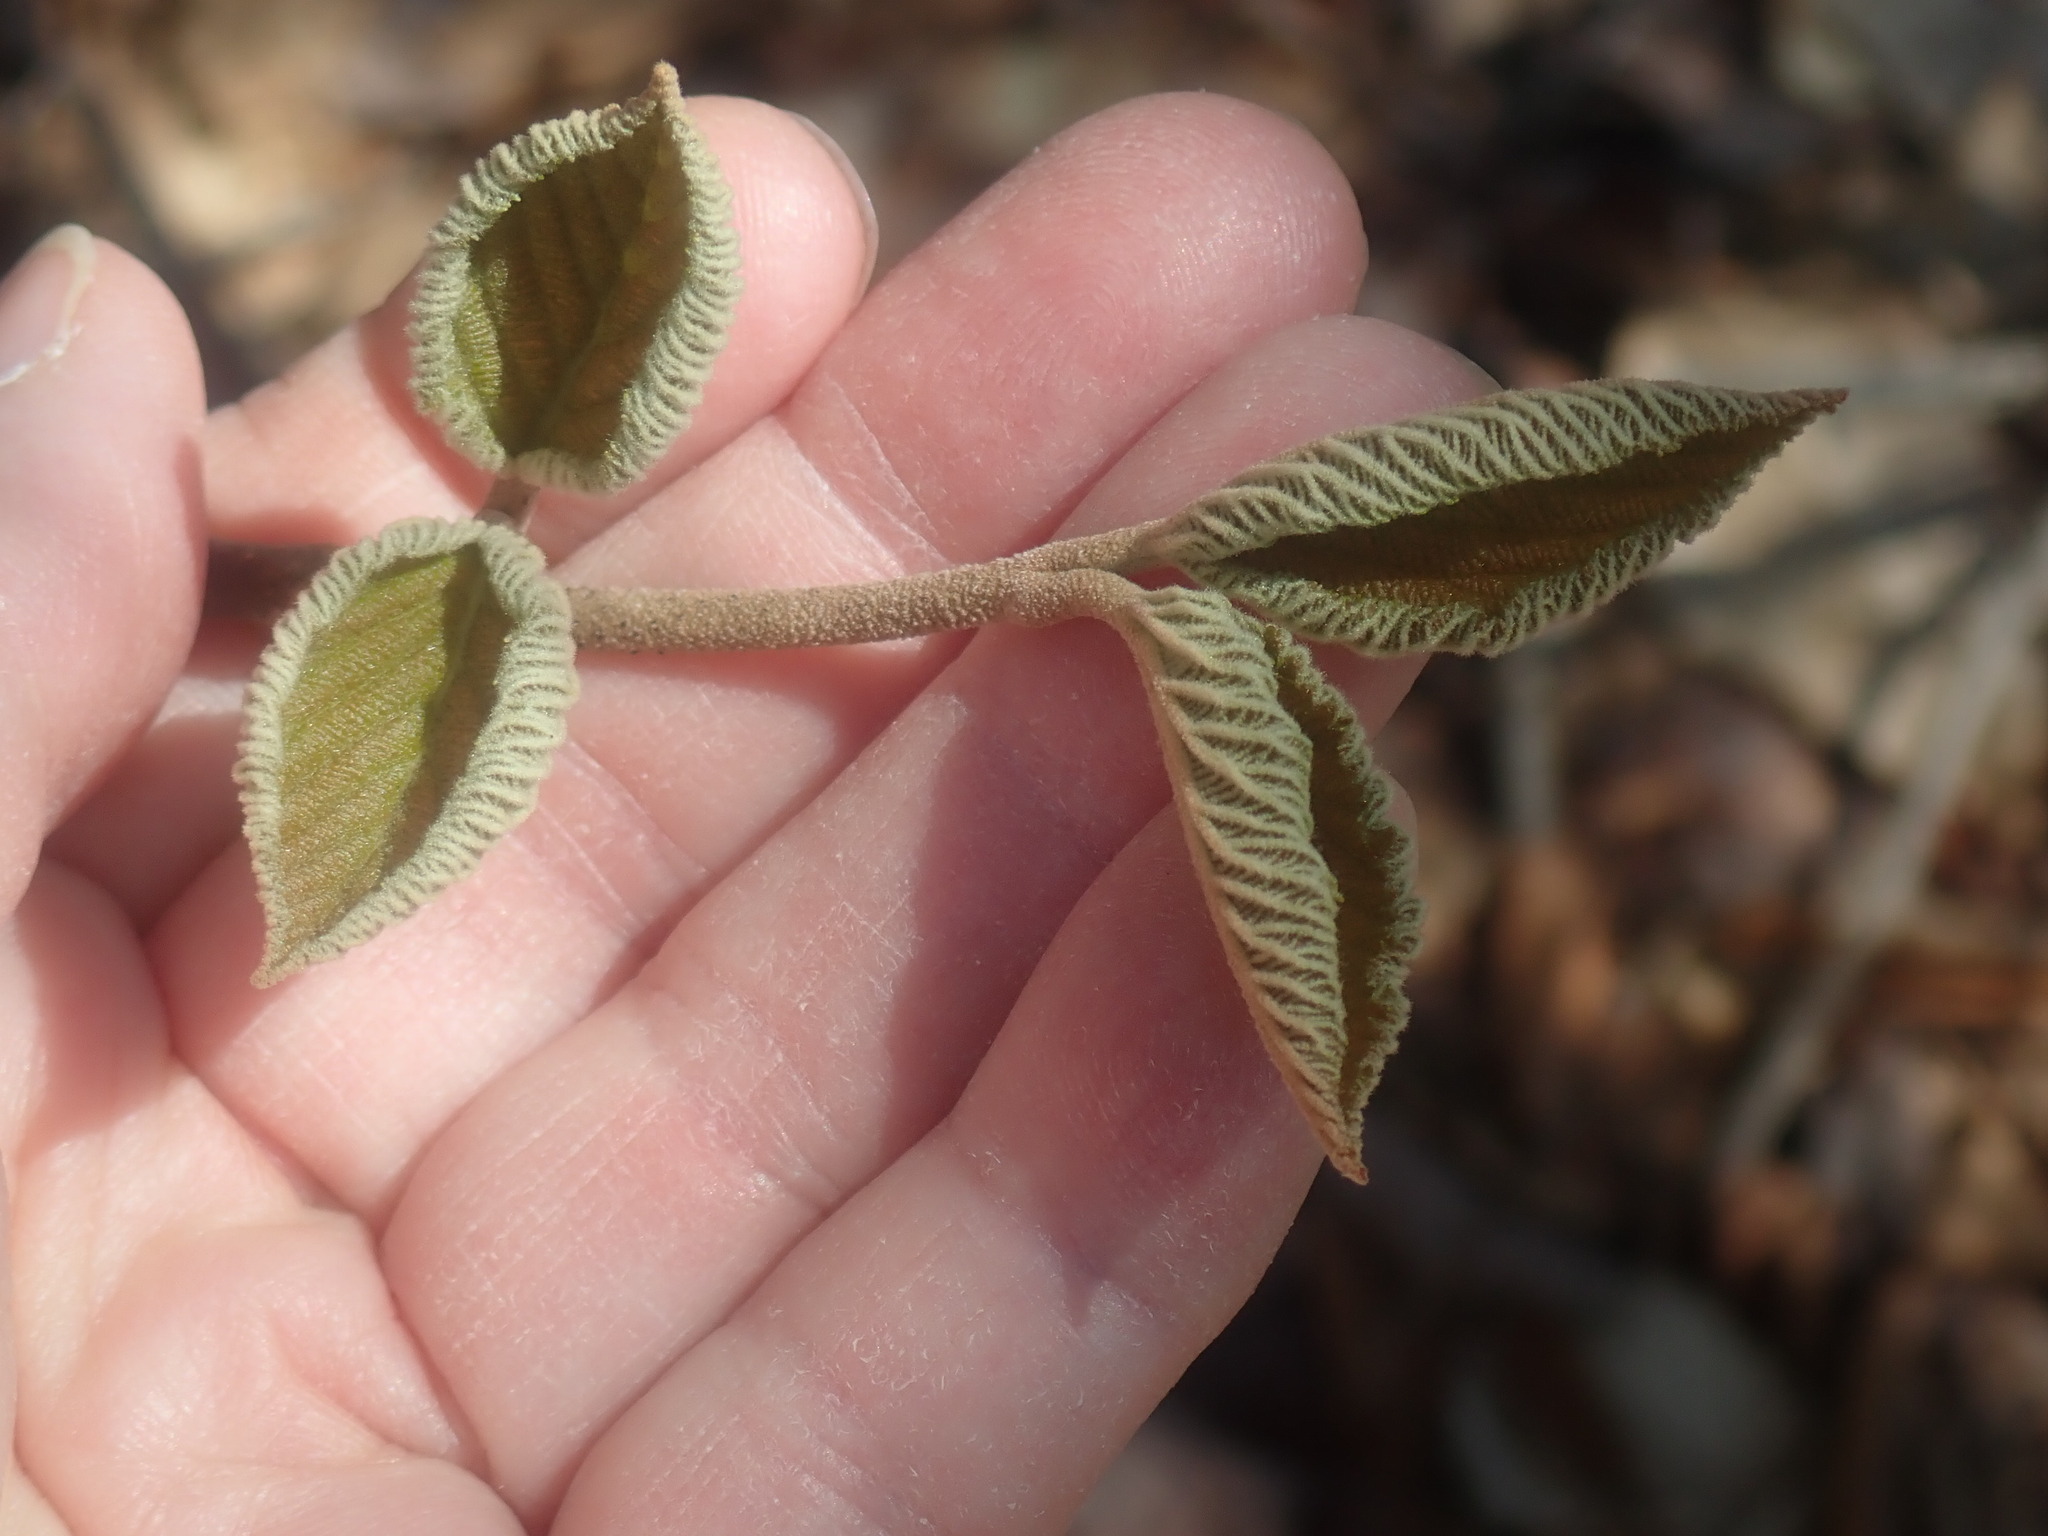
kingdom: Plantae
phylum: Tracheophyta
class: Magnoliopsida
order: Dipsacales
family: Viburnaceae
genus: Viburnum
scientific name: Viburnum lantanoides
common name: Hobblebush
